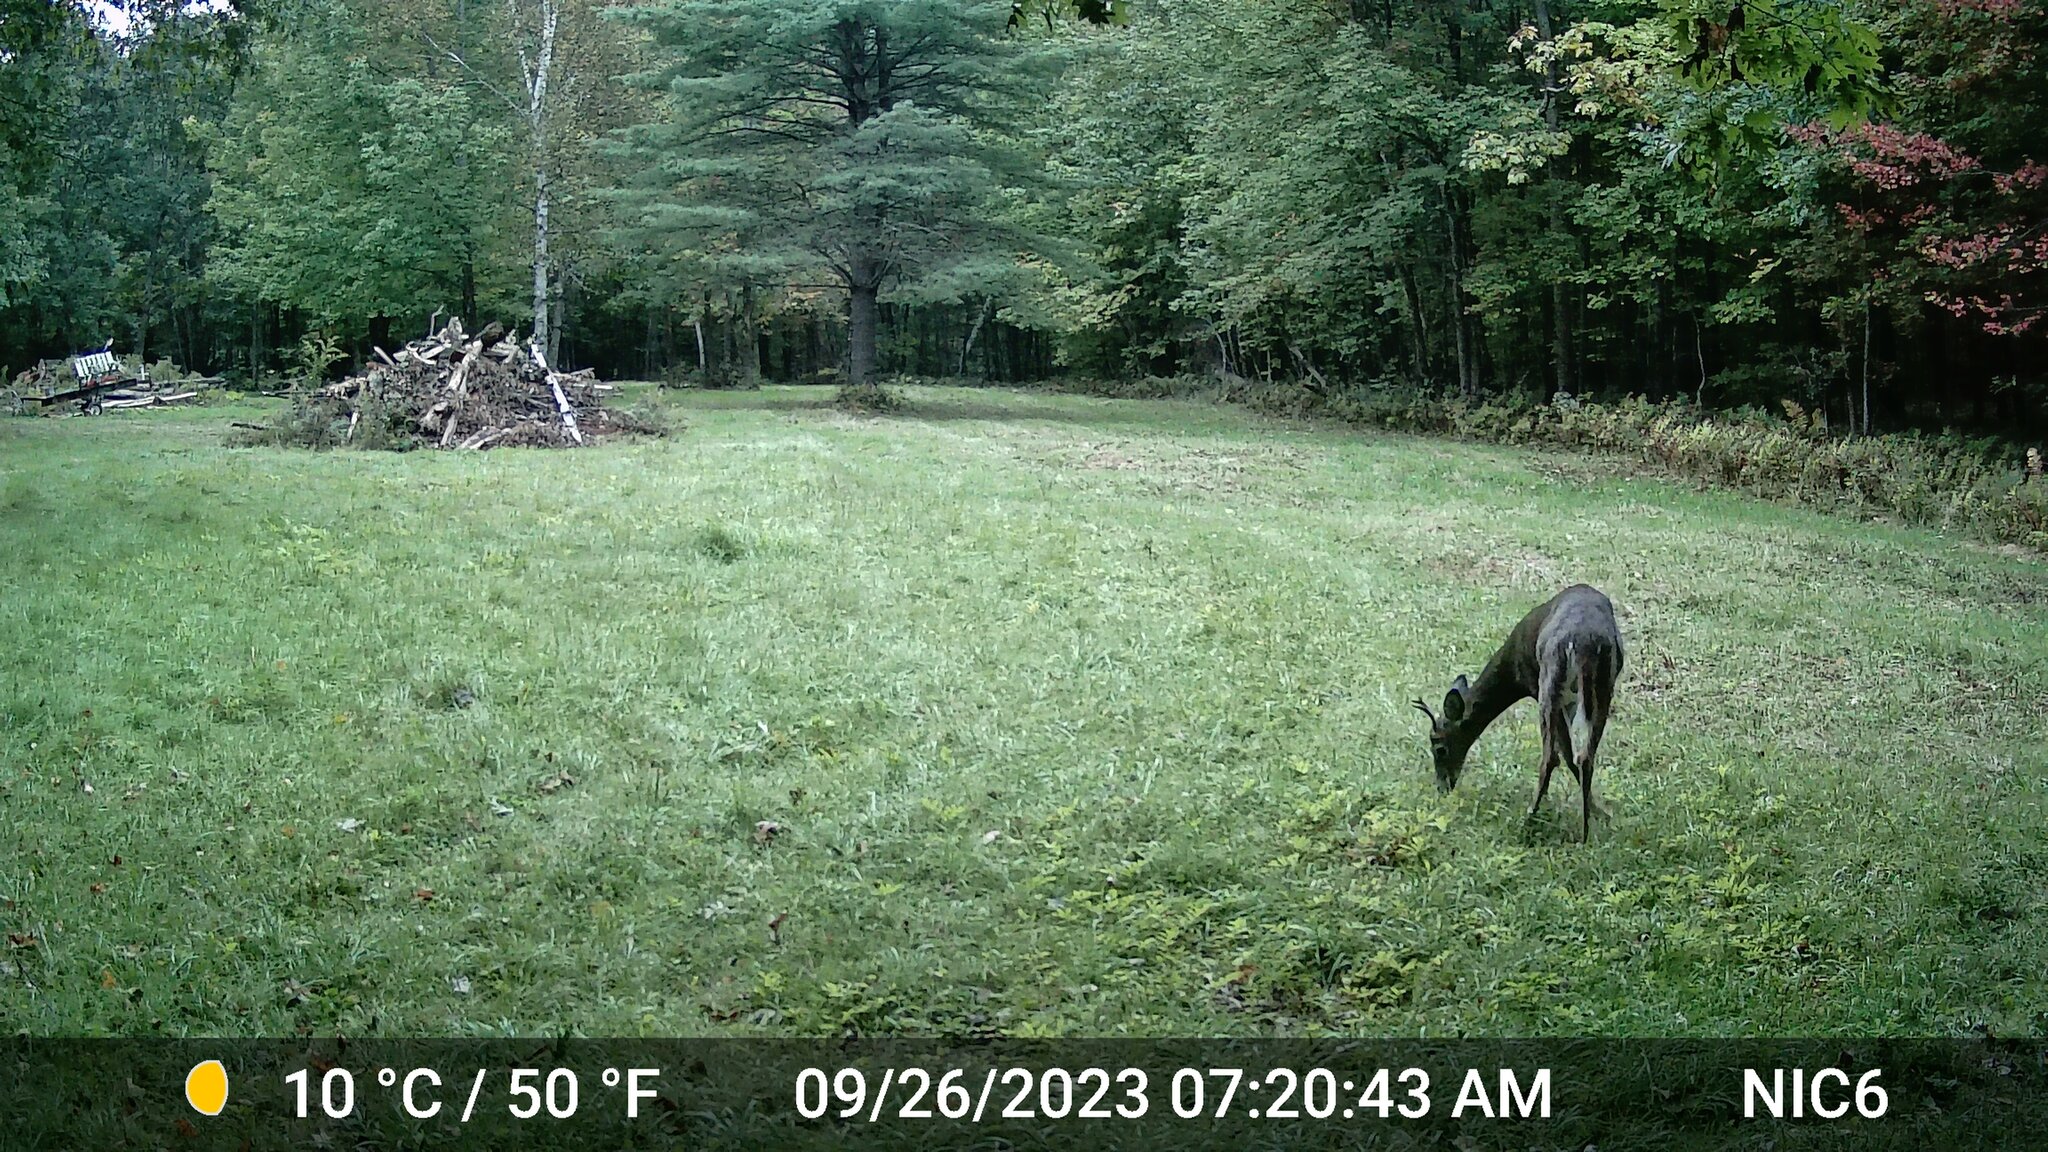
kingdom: Animalia
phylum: Chordata
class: Mammalia
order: Artiodactyla
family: Cervidae
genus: Odocoileus
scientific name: Odocoileus virginianus
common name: White-tailed deer
